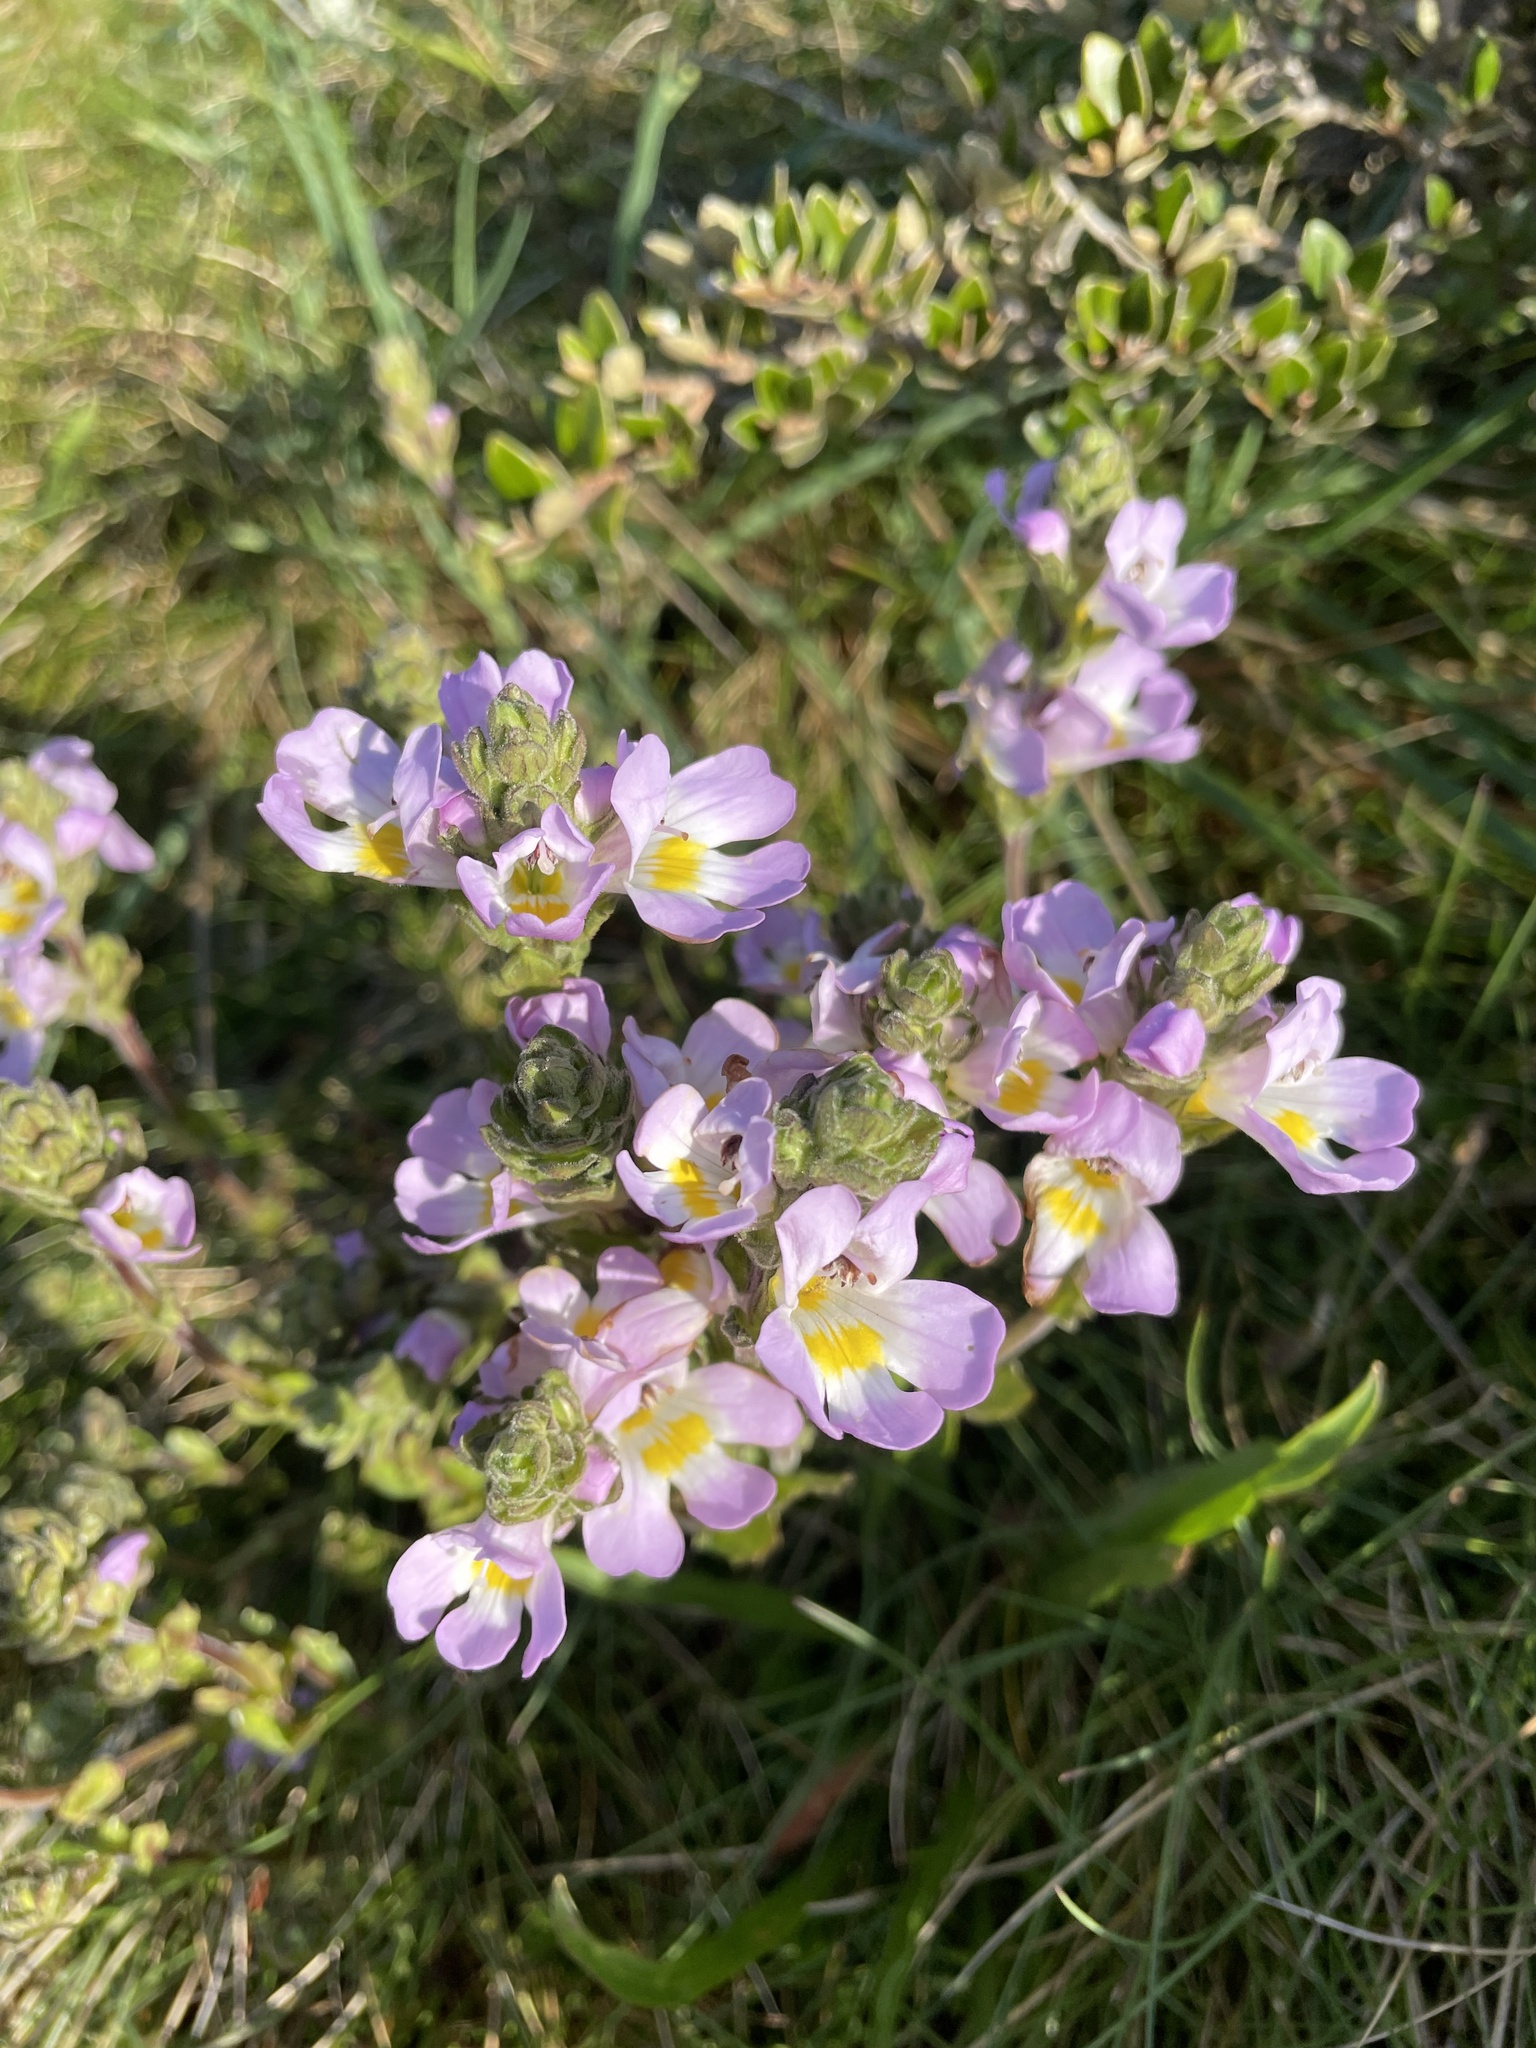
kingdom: Plantae
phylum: Tracheophyta
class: Magnoliopsida
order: Lamiales
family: Orobanchaceae
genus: Euphrasia
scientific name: Euphrasia collina
